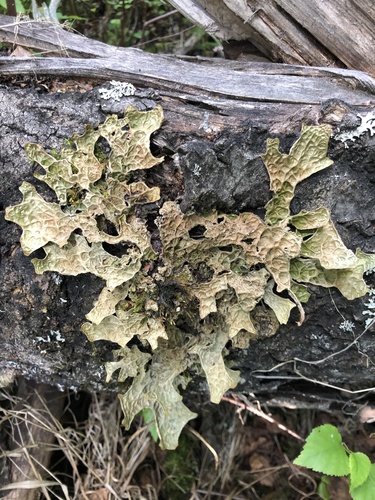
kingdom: Fungi
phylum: Ascomycota
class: Lecanoromycetes
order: Peltigerales
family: Lobariaceae
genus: Lobaria
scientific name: Lobaria pulmonaria
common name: Lungwort
